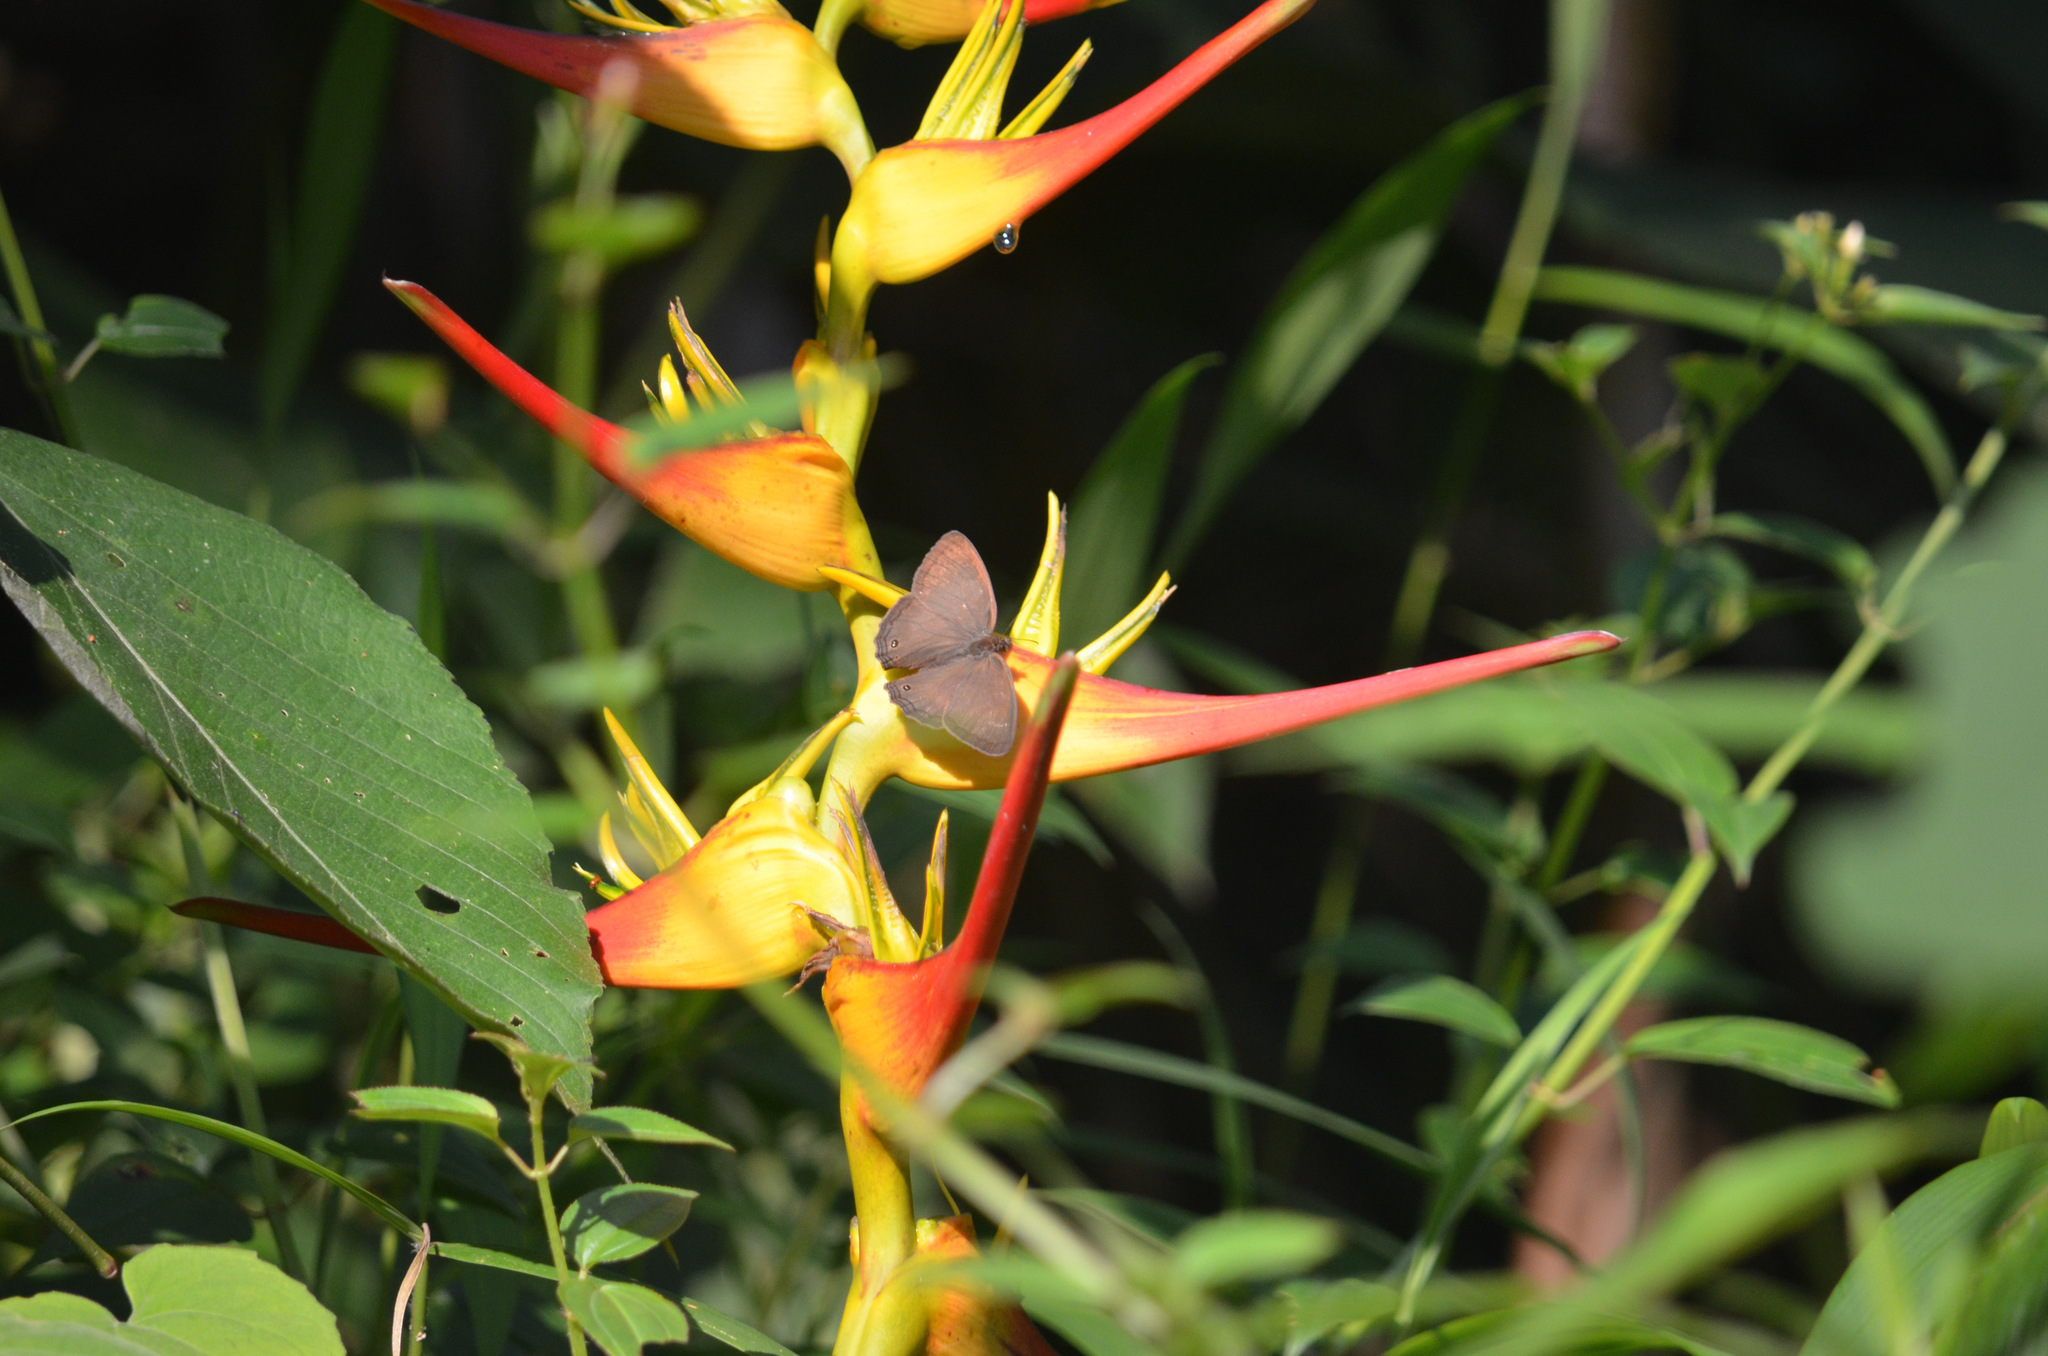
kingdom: Plantae
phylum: Tracheophyta
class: Liliopsida
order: Zingiberales
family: Heliconiaceae
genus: Heliconia
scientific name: Heliconia latispatha
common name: Expanded lobsterclaw
